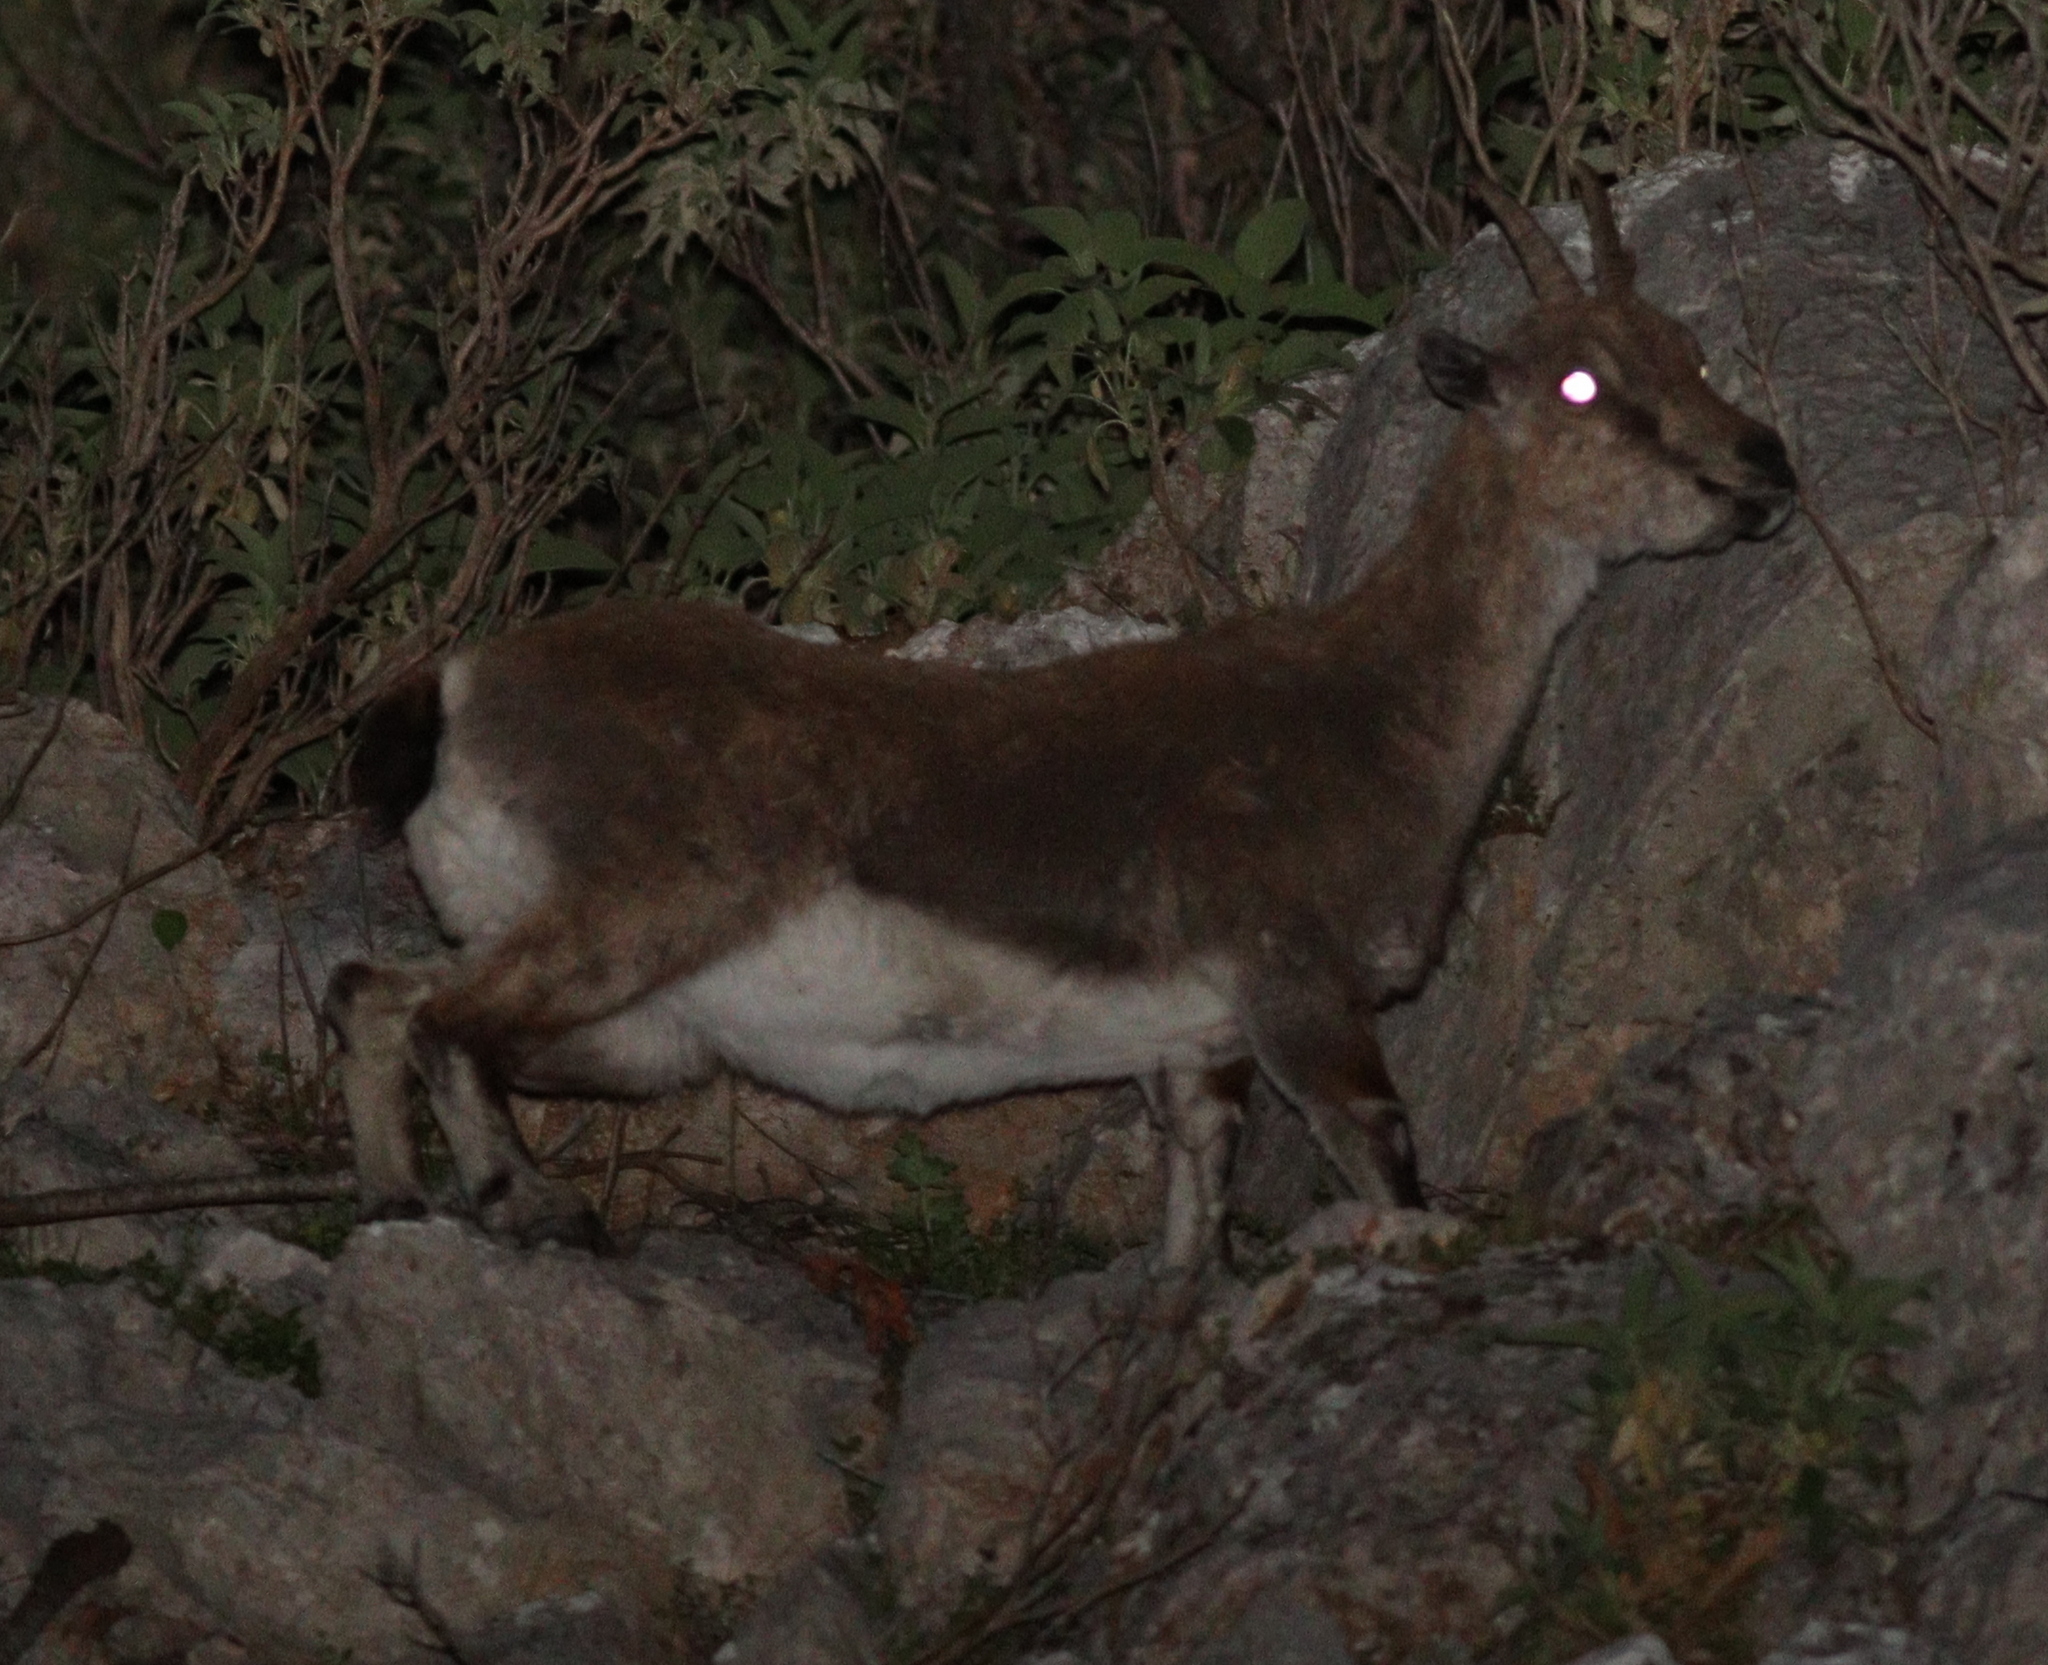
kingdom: Animalia
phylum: Chordata
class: Mammalia
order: Artiodactyla
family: Bovidae
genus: Capra
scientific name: Capra hircus
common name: Domestic goat
